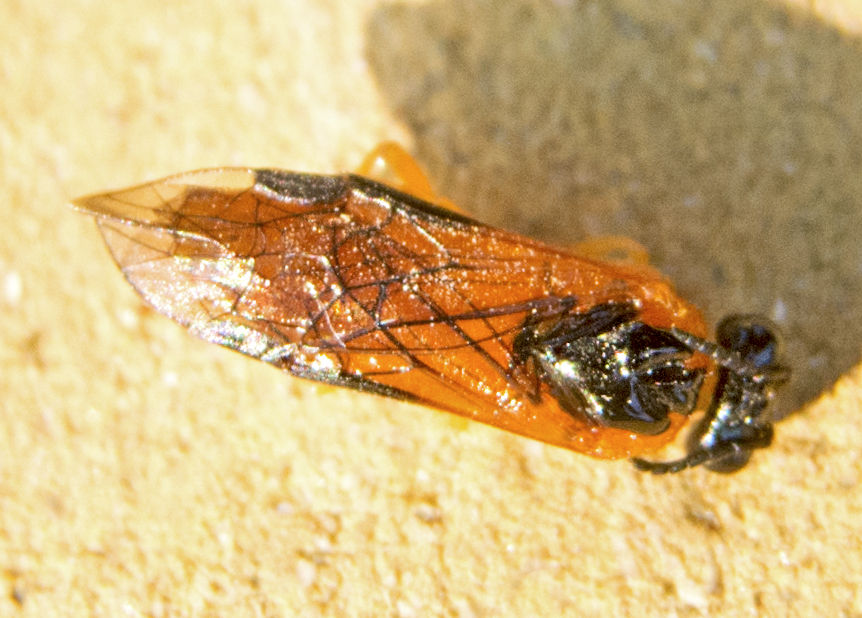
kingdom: Animalia
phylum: Arthropoda
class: Insecta
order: Hymenoptera
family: Tenthredinidae
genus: Selandria
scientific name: Selandria serva
